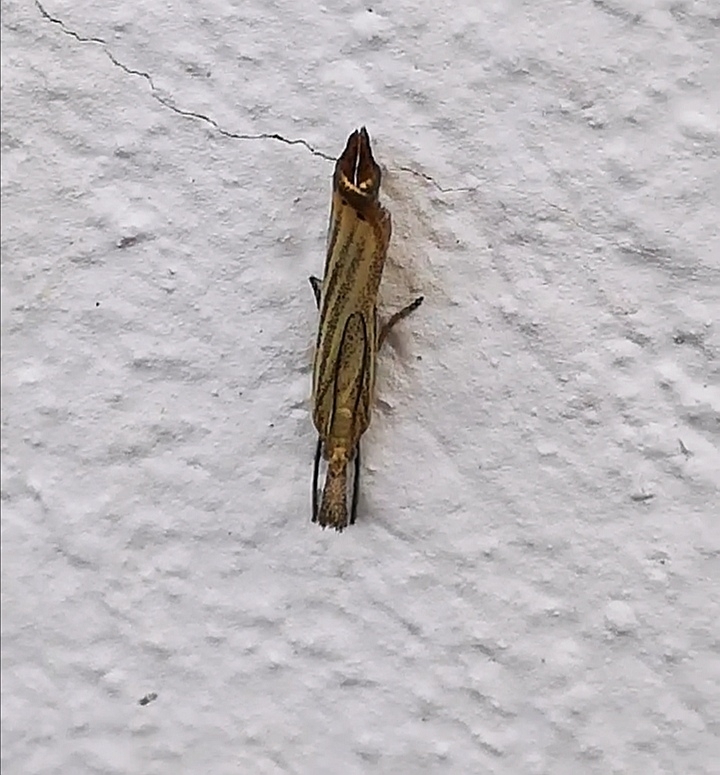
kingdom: Animalia
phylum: Arthropoda
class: Insecta
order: Lepidoptera
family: Crambidae
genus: Agriphila
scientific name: Agriphila straminella
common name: Straw grass-veneer
